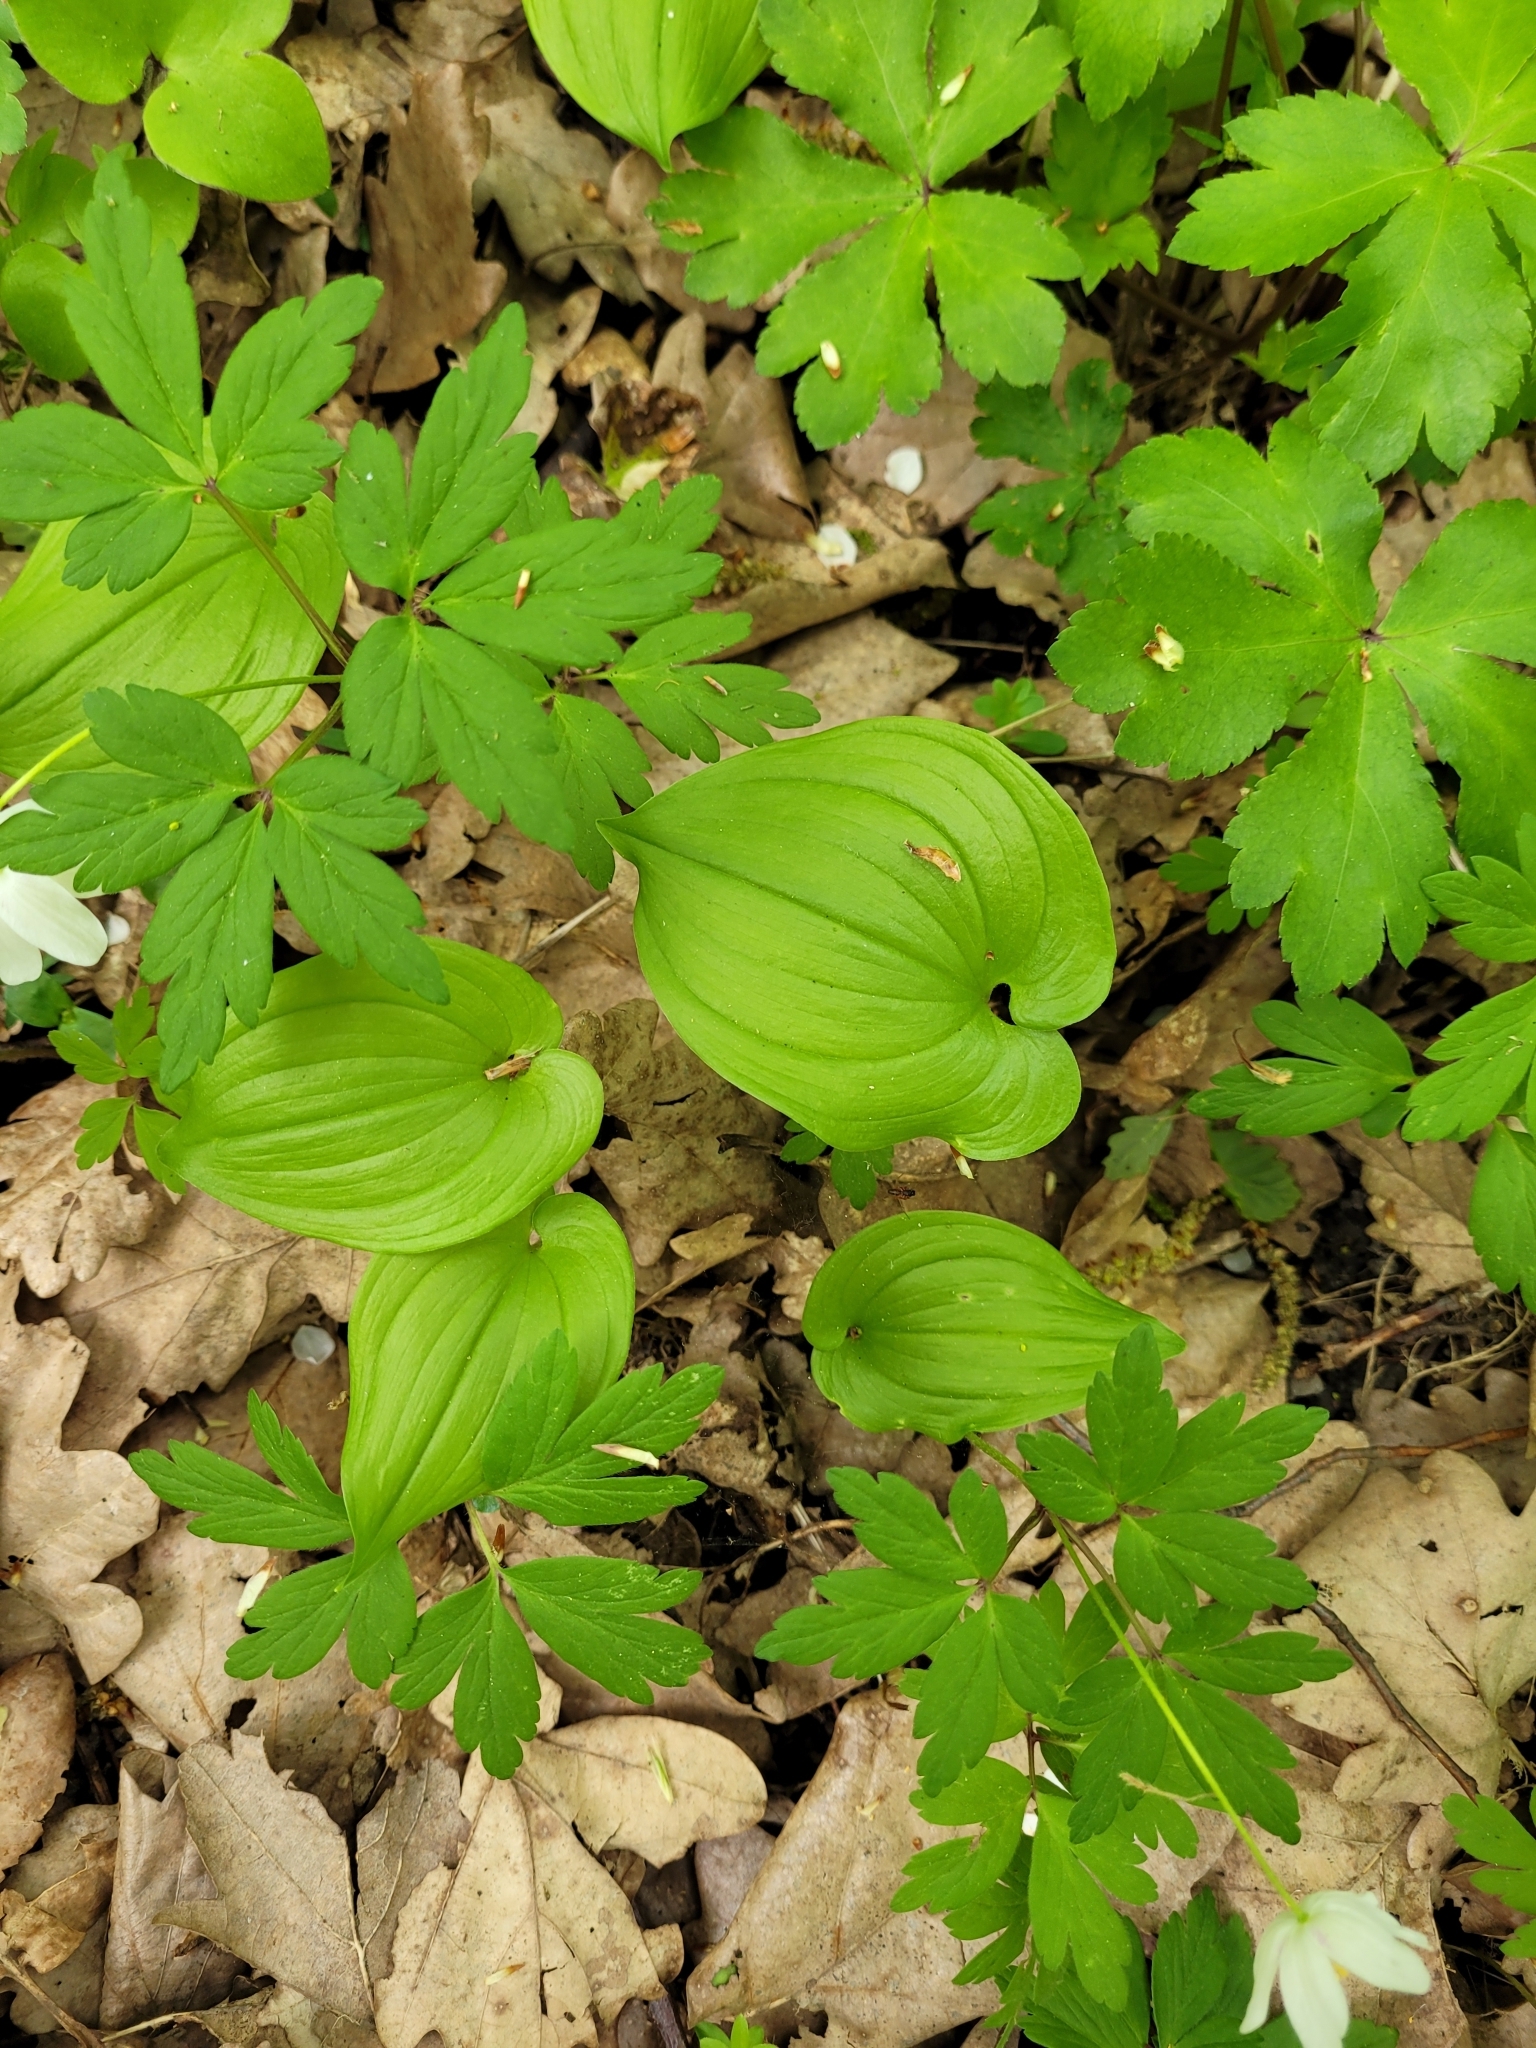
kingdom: Plantae
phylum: Tracheophyta
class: Liliopsida
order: Asparagales
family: Asparagaceae
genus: Maianthemum
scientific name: Maianthemum bifolium
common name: May lily
